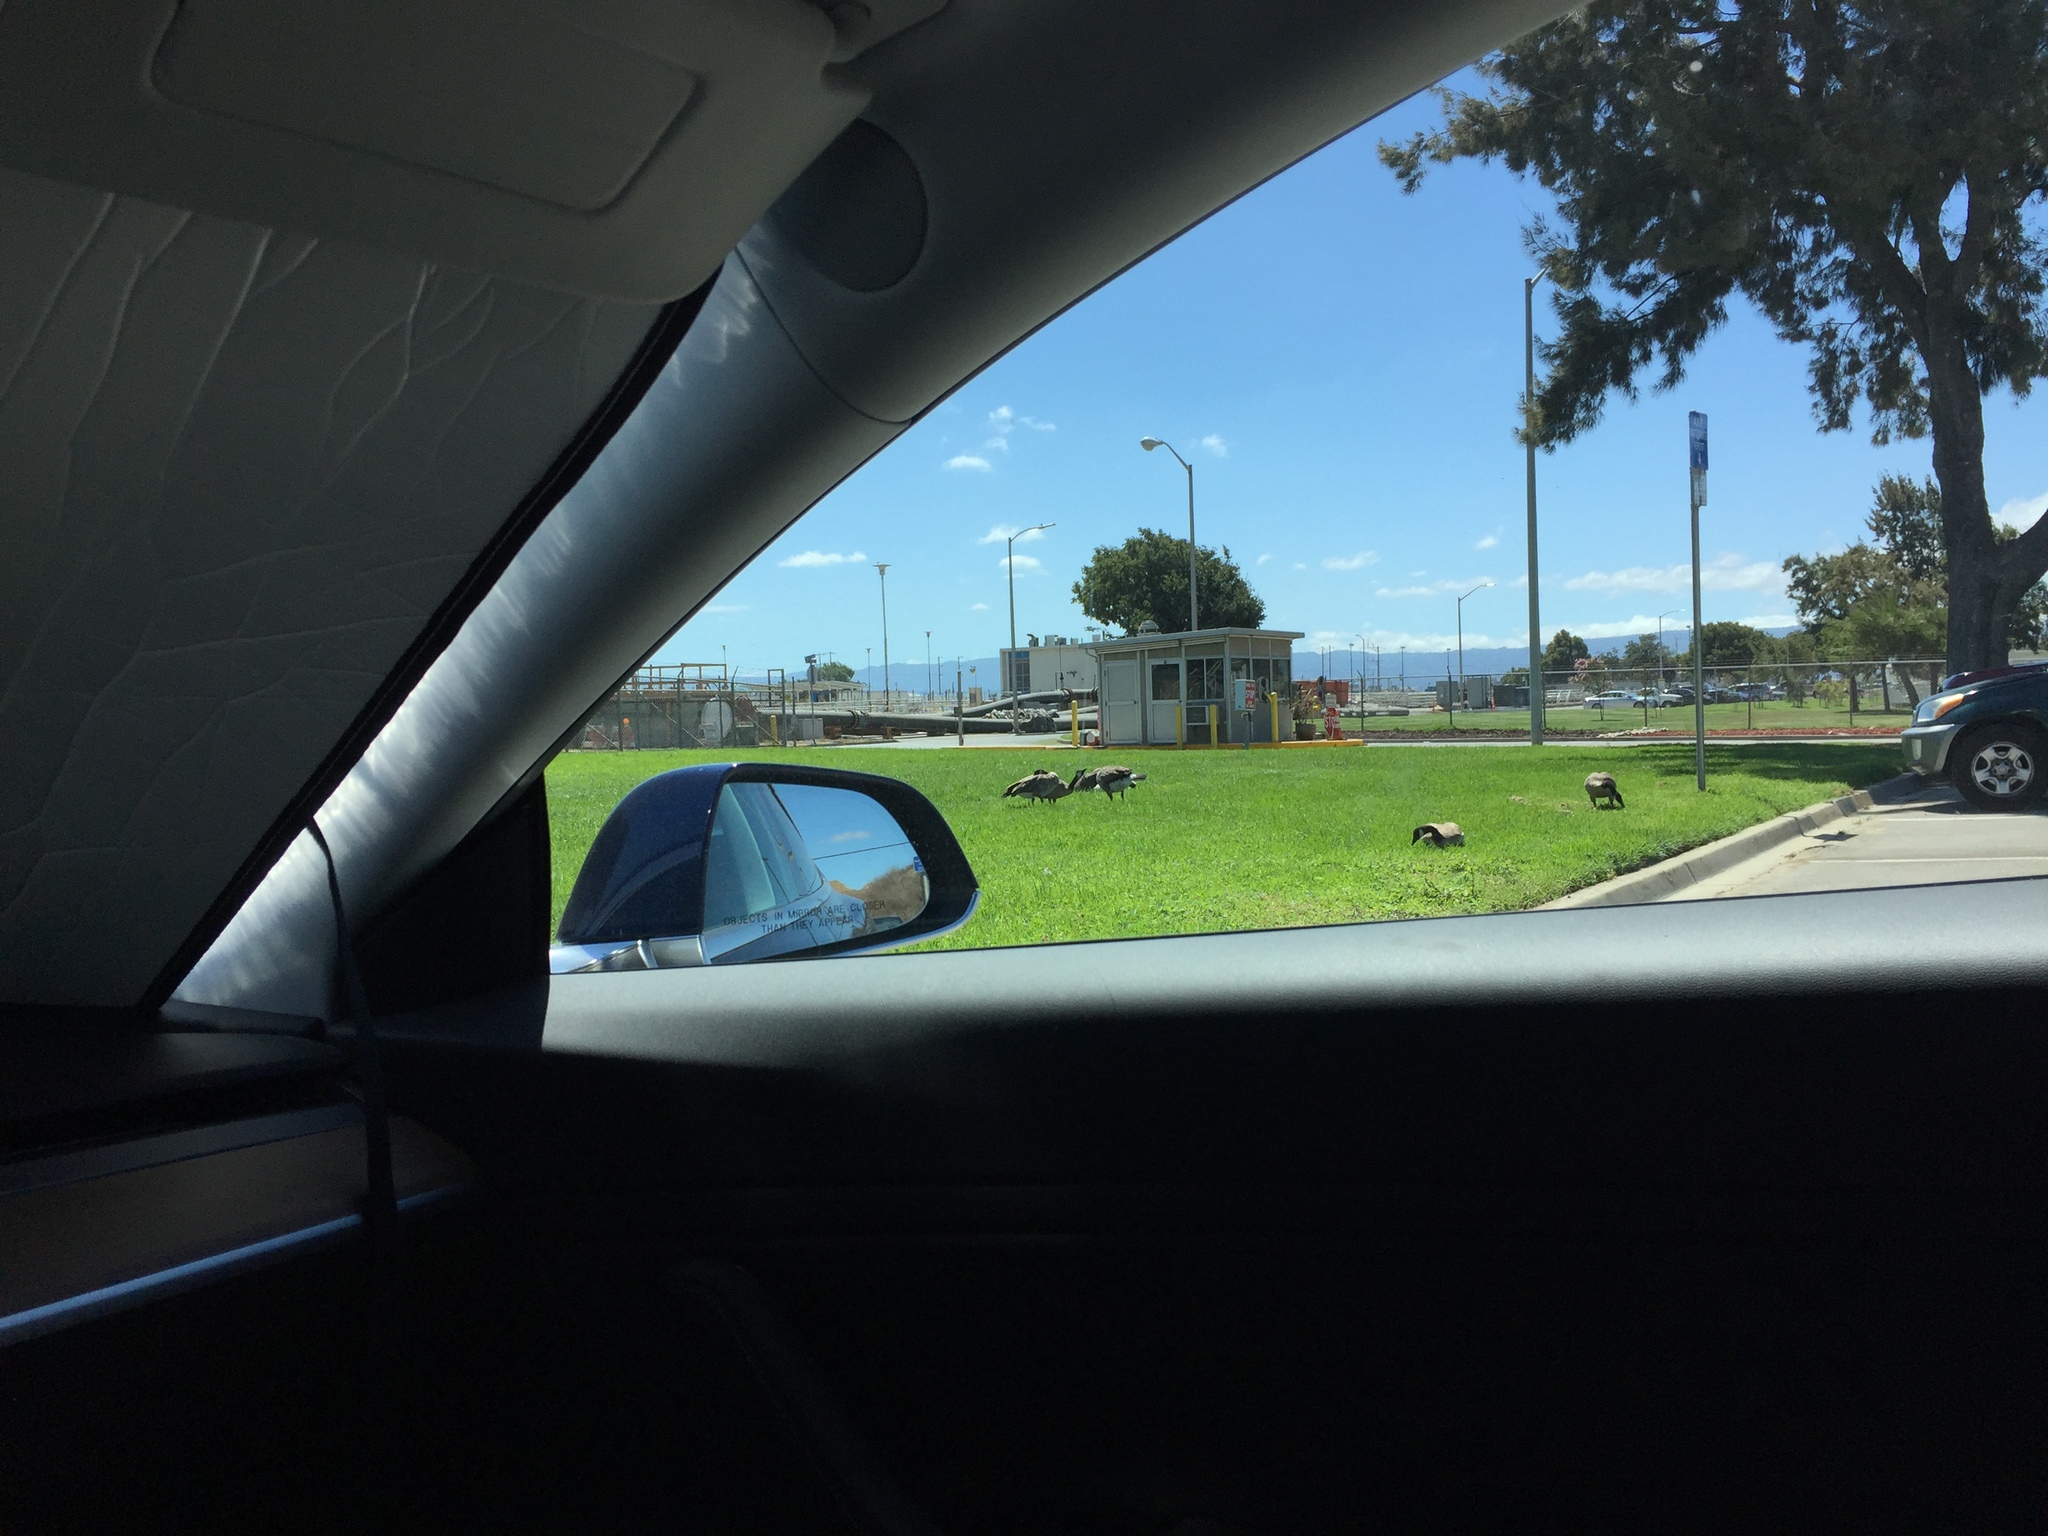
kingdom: Animalia
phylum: Chordata
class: Aves
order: Anseriformes
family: Anatidae
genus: Branta
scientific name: Branta canadensis
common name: Canada goose
